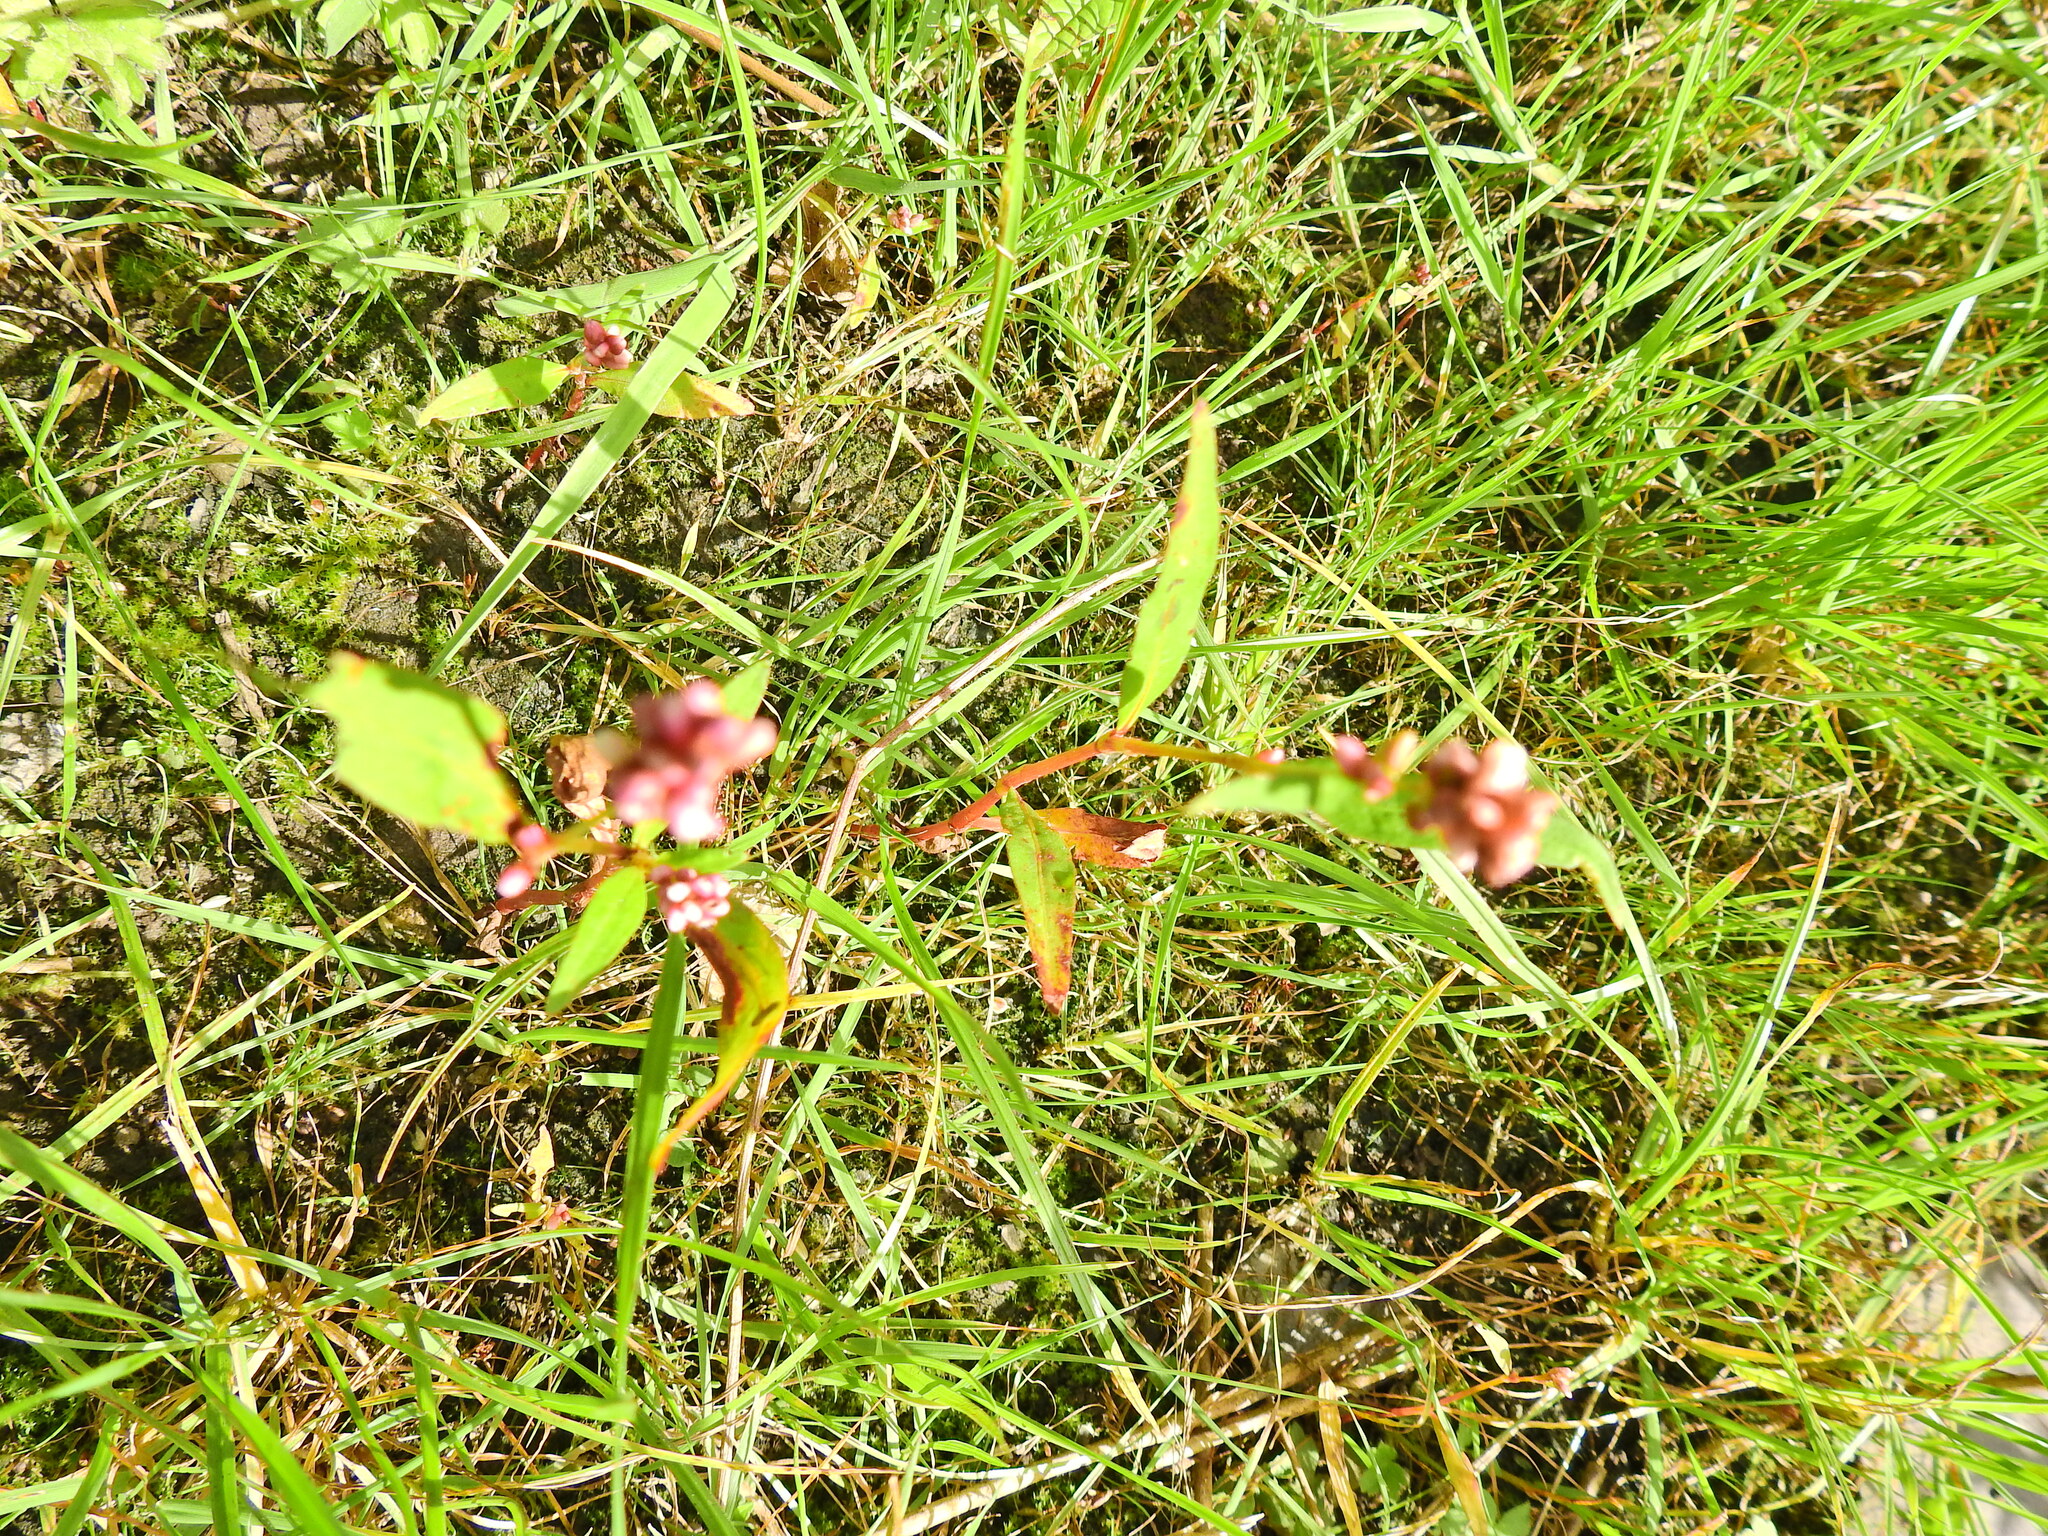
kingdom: Plantae
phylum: Tracheophyta
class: Magnoliopsida
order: Caryophyllales
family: Polygonaceae
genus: Persicaria
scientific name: Persicaria maculosa
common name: Redshank
